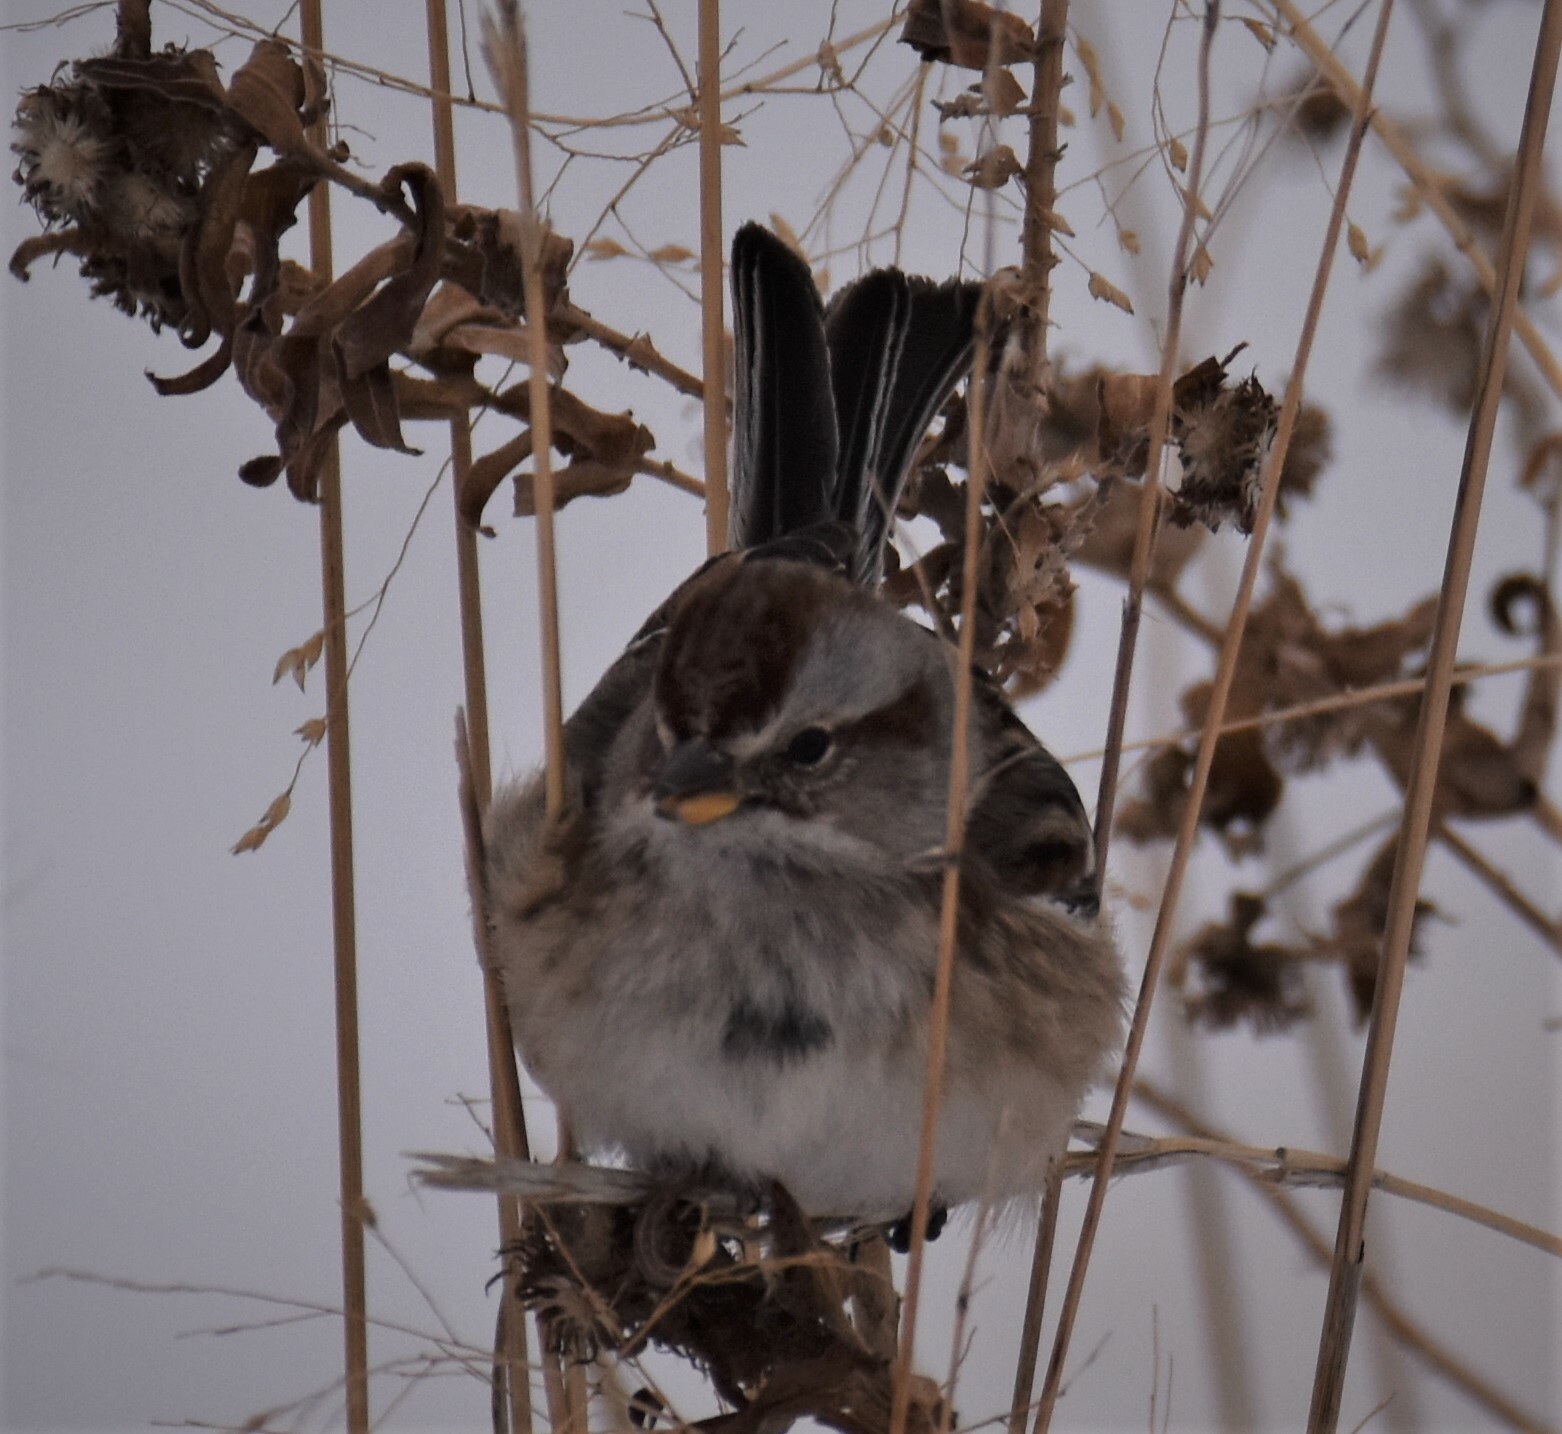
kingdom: Animalia
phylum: Chordata
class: Aves
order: Passeriformes
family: Passerellidae
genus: Spizelloides
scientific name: Spizelloides arborea
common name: American tree sparrow
